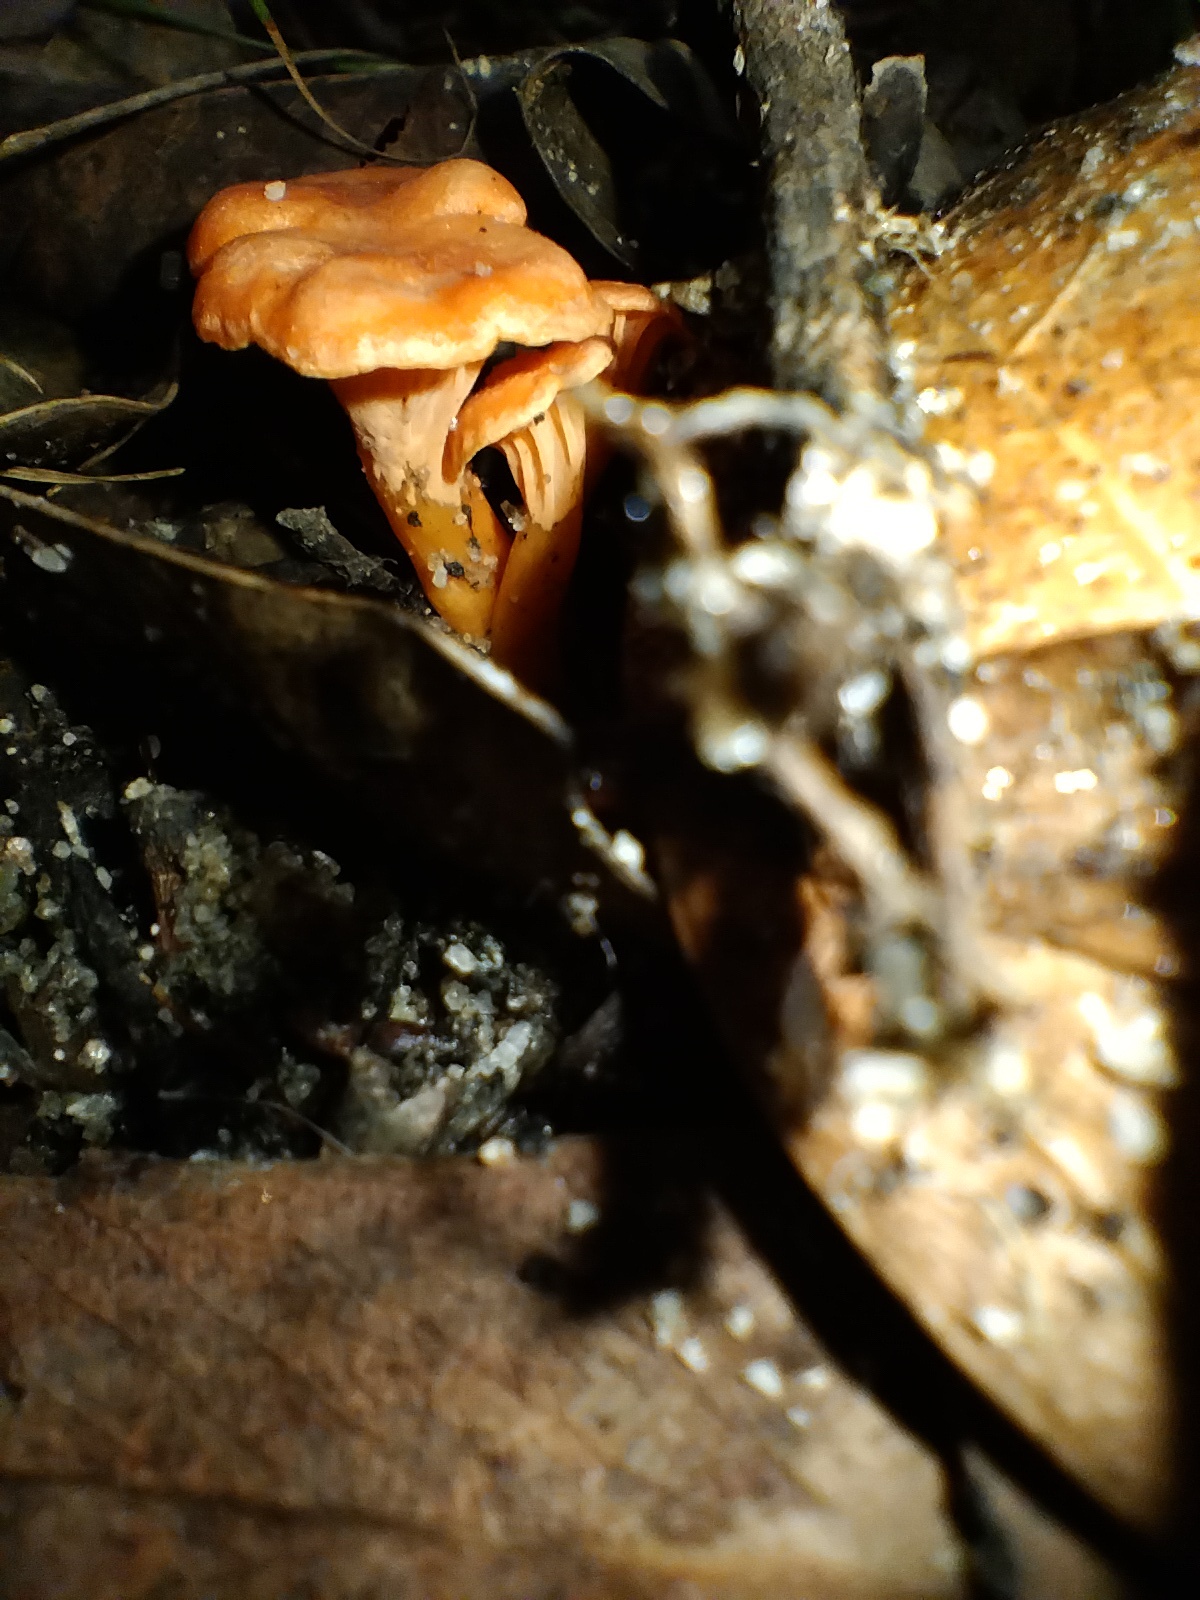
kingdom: Fungi
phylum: Basidiomycota
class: Agaricomycetes
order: Cantharellales
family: Hydnaceae
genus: Cantharellus
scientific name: Cantharellus
